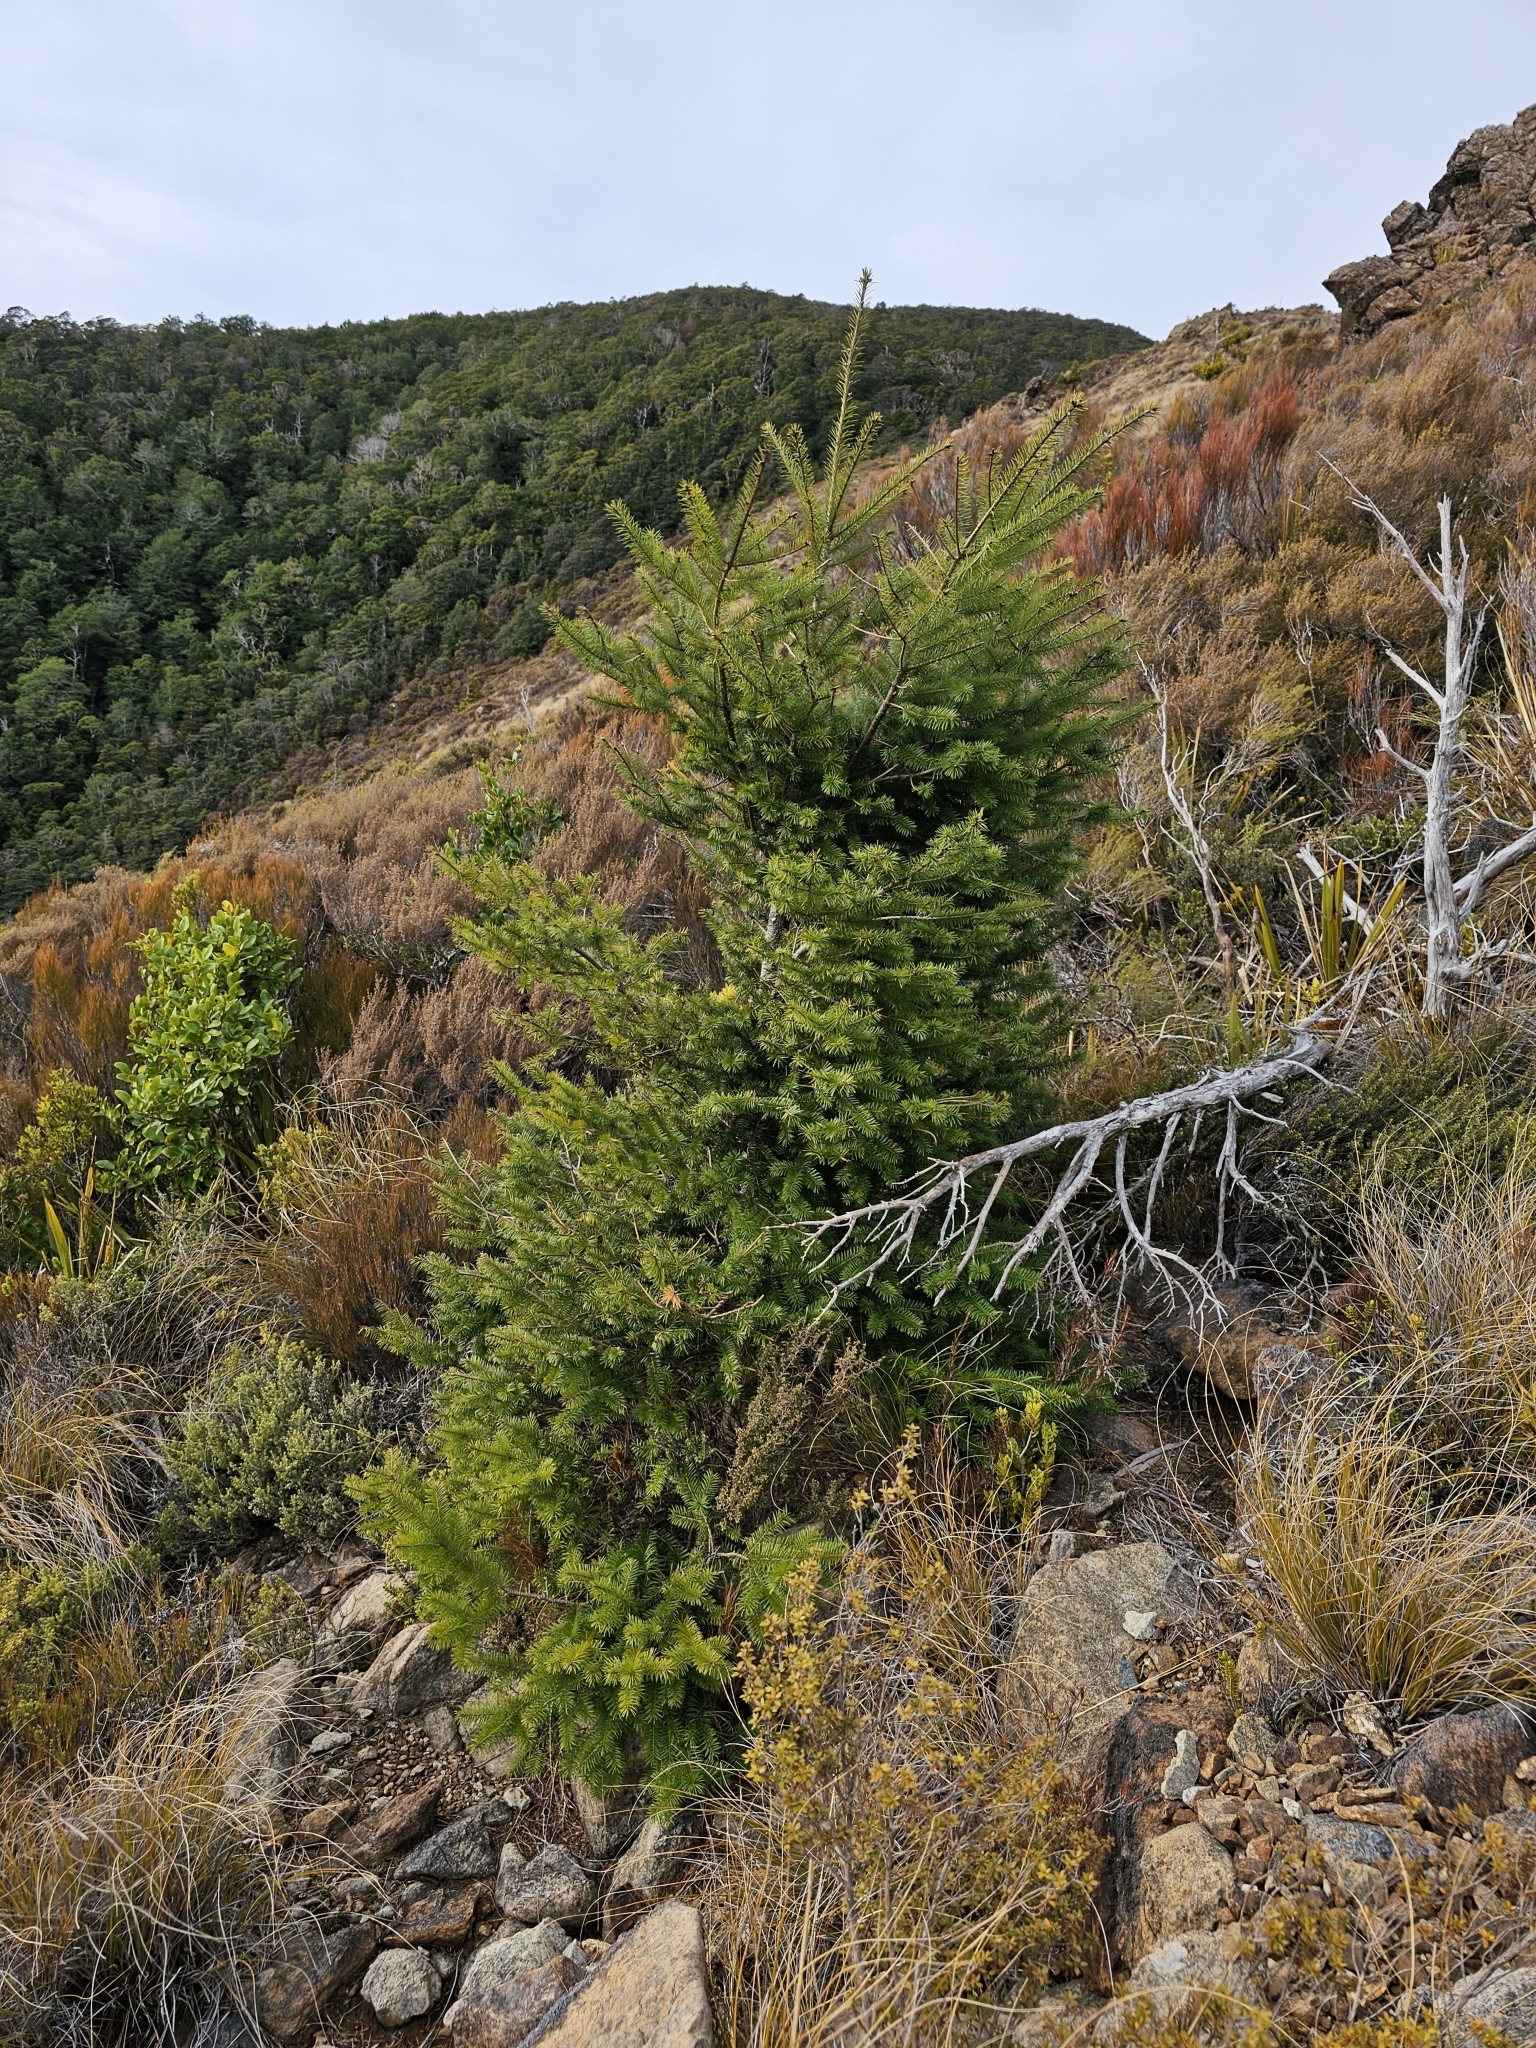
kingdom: Plantae
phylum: Tracheophyta
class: Pinopsida
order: Pinales
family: Pinaceae
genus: Pseudotsuga
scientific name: Pseudotsuga menziesii
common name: Douglas fir
